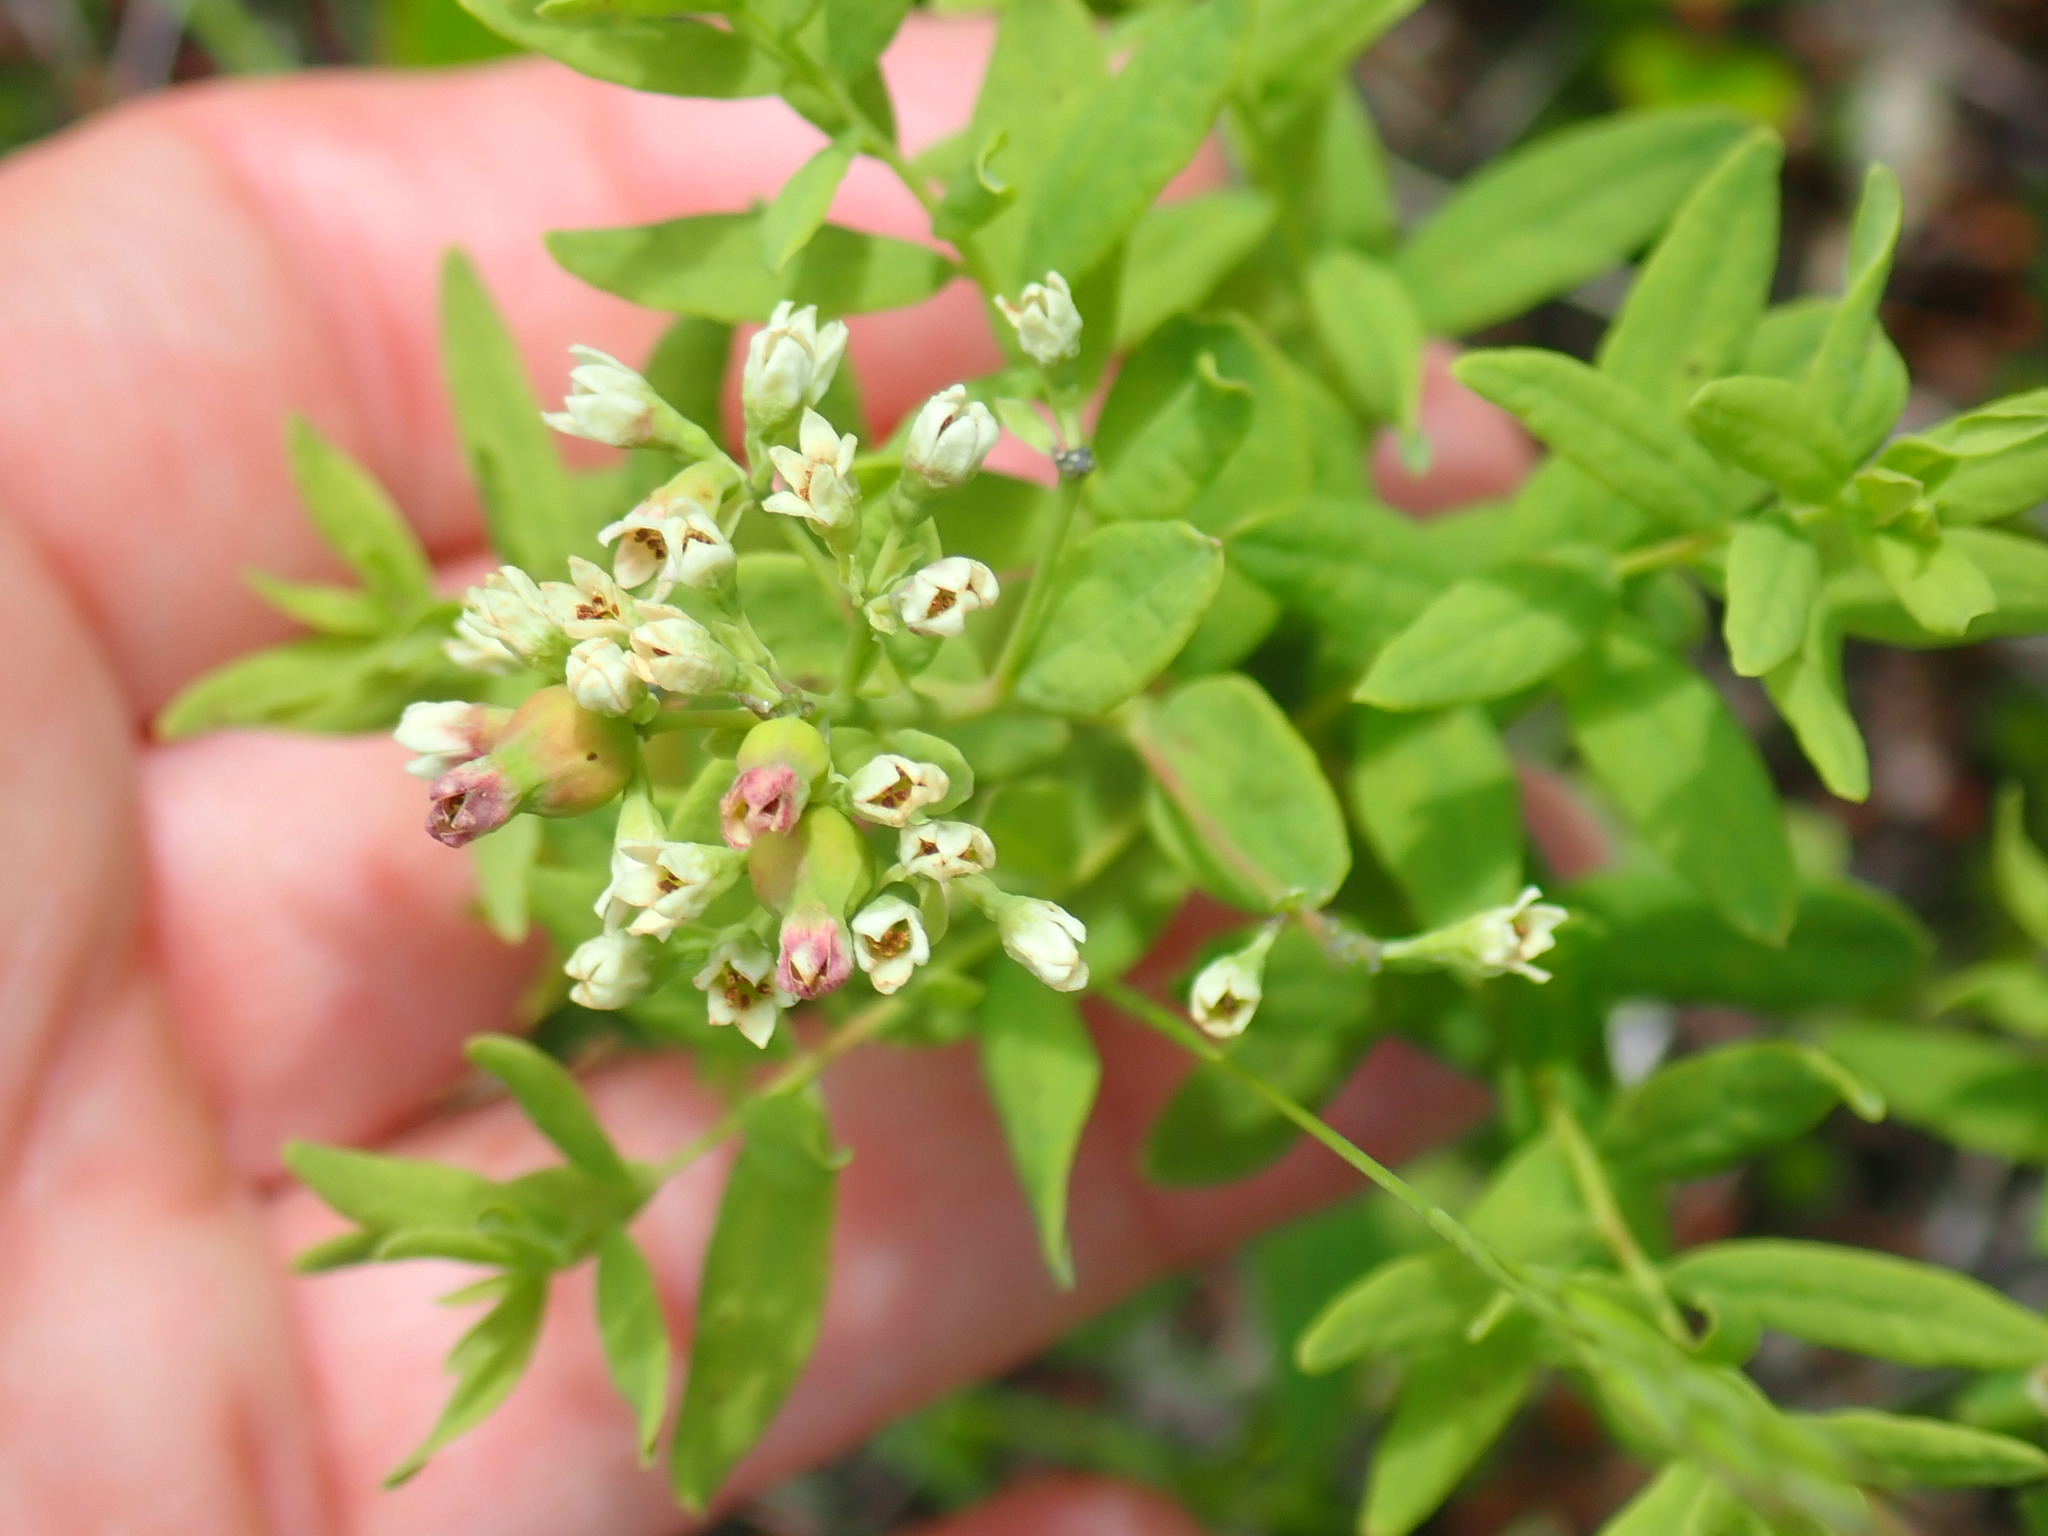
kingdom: Plantae
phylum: Tracheophyta
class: Magnoliopsida
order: Santalales
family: Comandraceae
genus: Comandra
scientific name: Comandra umbellata
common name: Bastard toadflax
